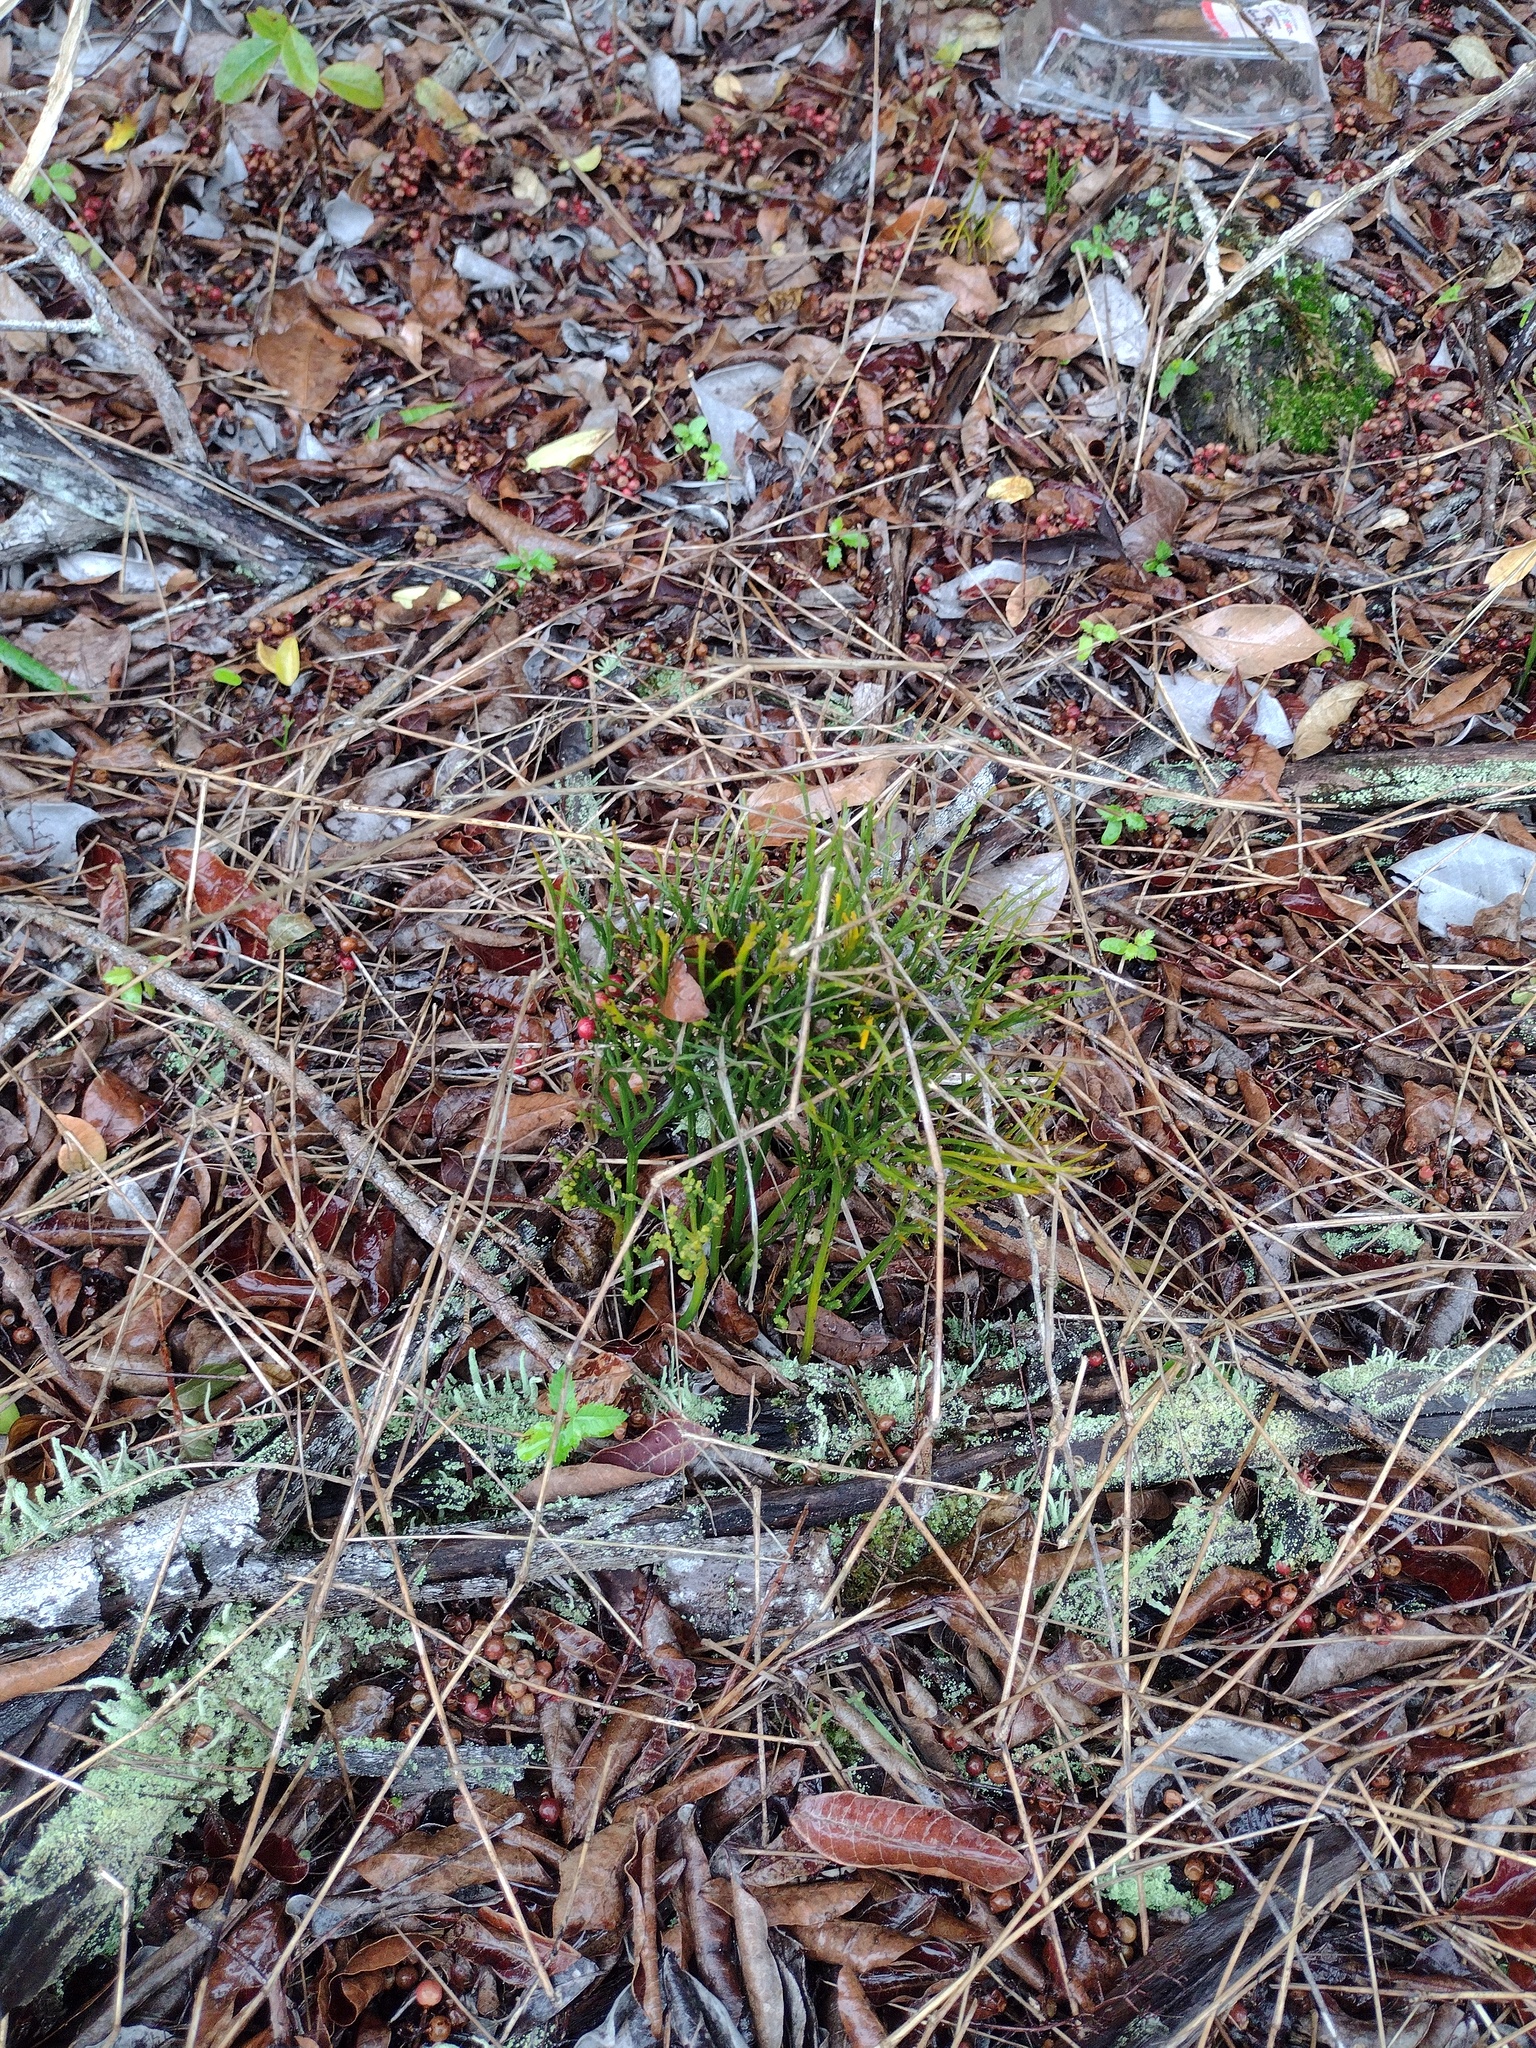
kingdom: Plantae
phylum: Tracheophyta
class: Polypodiopsida
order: Psilotales
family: Psilotaceae
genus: Psilotum
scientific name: Psilotum nudum
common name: Skeleton fork fern
